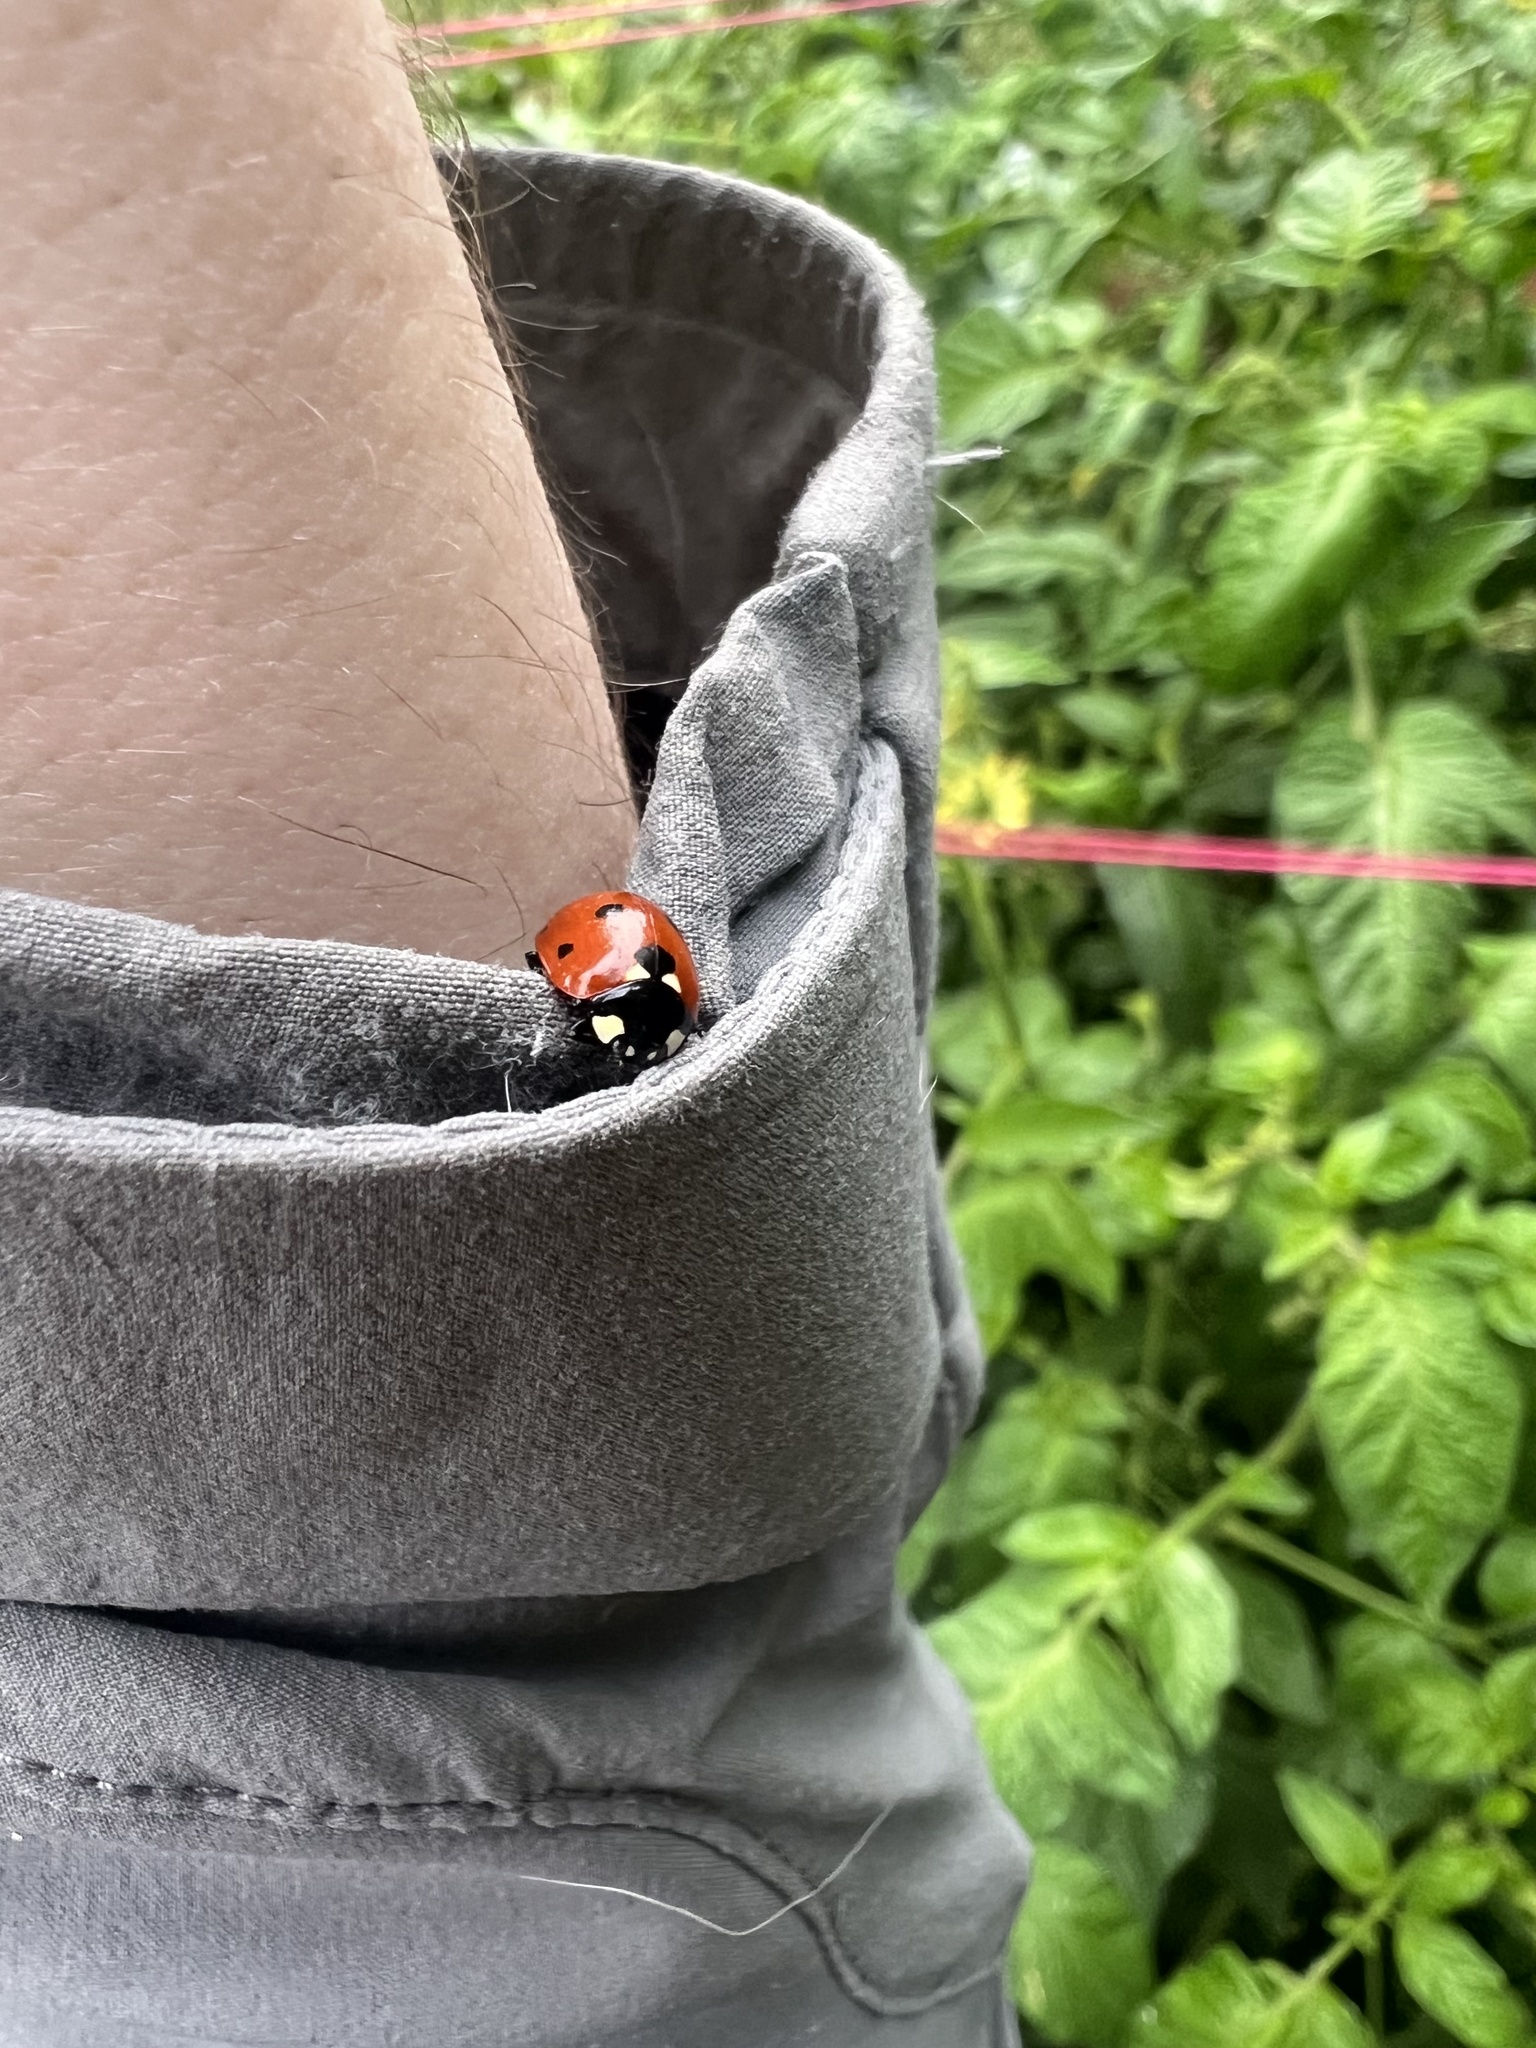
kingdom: Animalia
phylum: Arthropoda
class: Insecta
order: Coleoptera
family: Coccinellidae
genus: Coccinella
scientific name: Coccinella septempunctata
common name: Sevenspotted lady beetle
